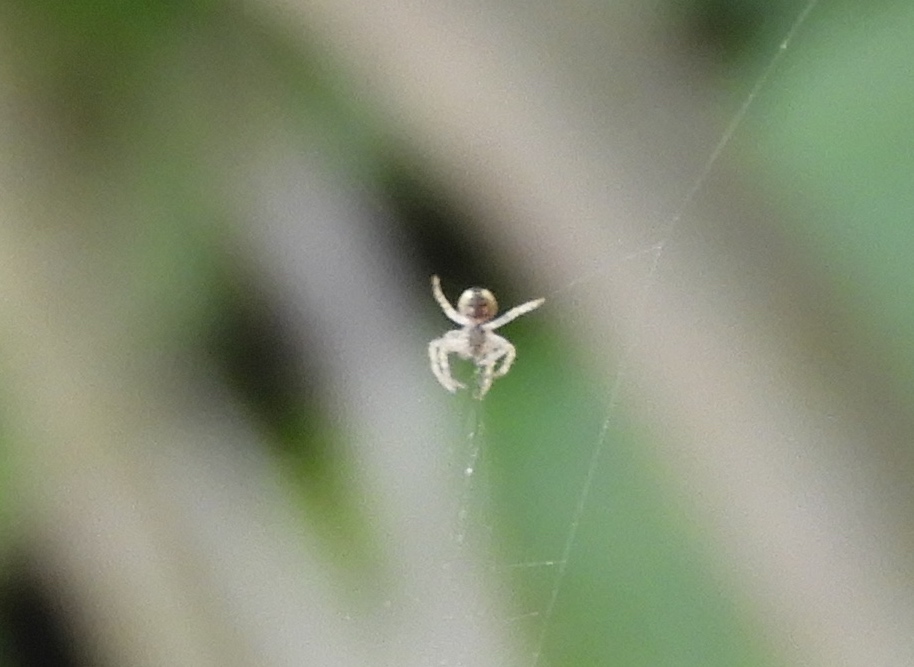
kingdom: Animalia
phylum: Arthropoda
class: Arachnida
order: Araneae
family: Araneidae
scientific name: Araneidae
